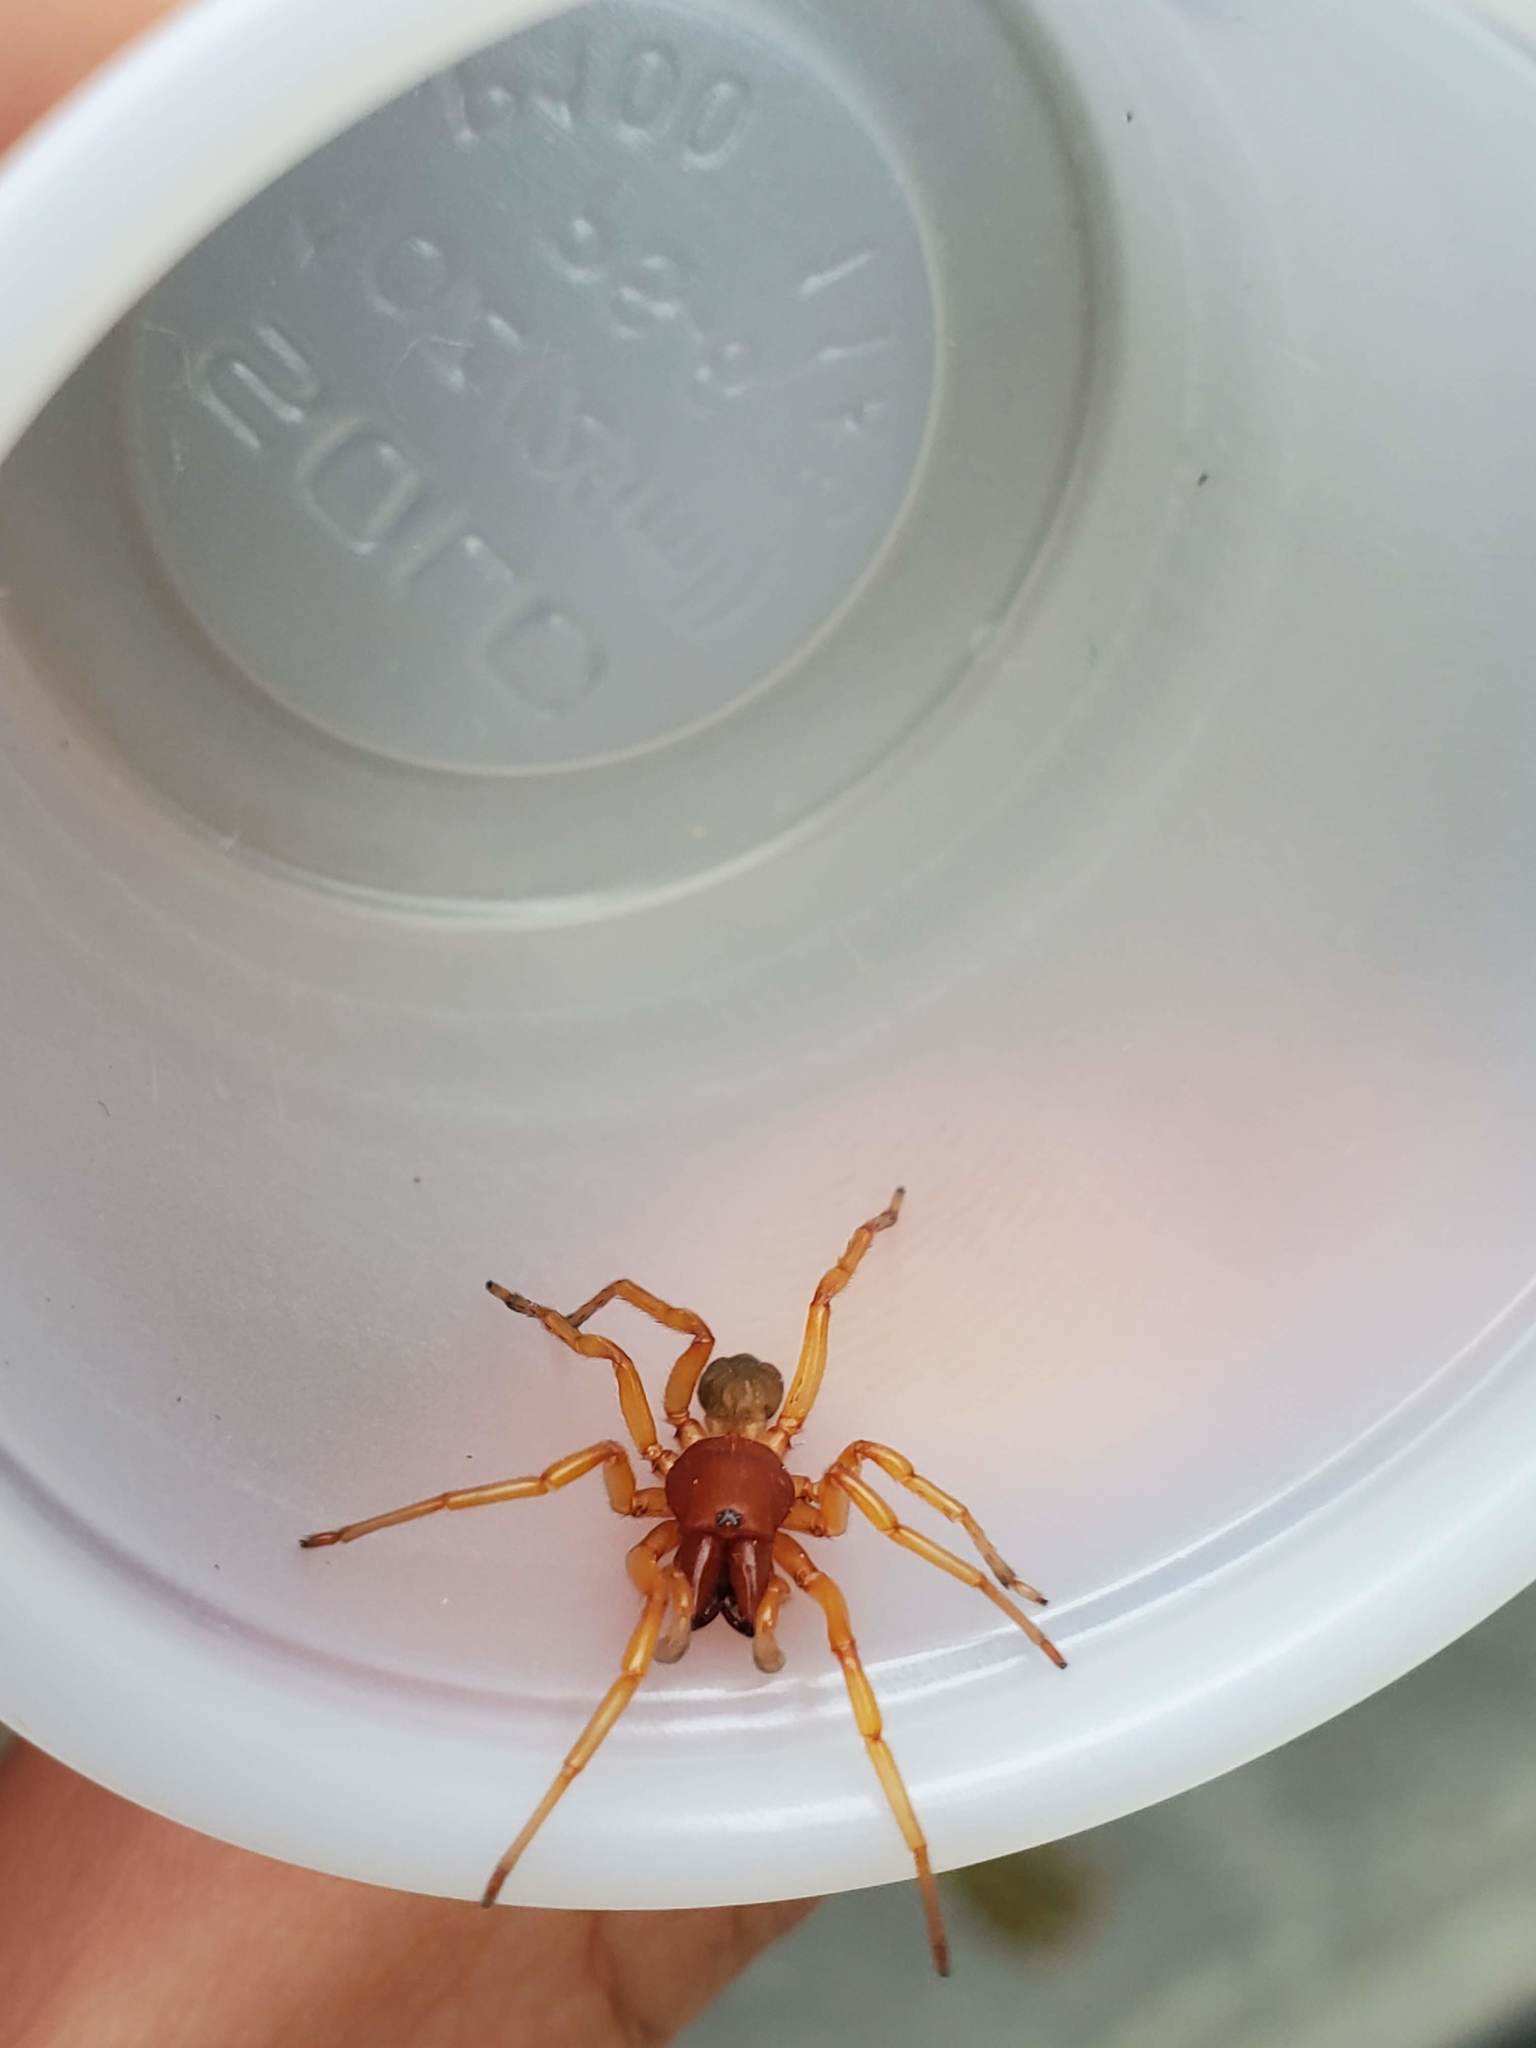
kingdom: Animalia
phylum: Arthropoda
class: Arachnida
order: Araneae
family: Dysderidae
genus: Dysdera
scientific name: Dysdera crocata
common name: Woodlouse spider
